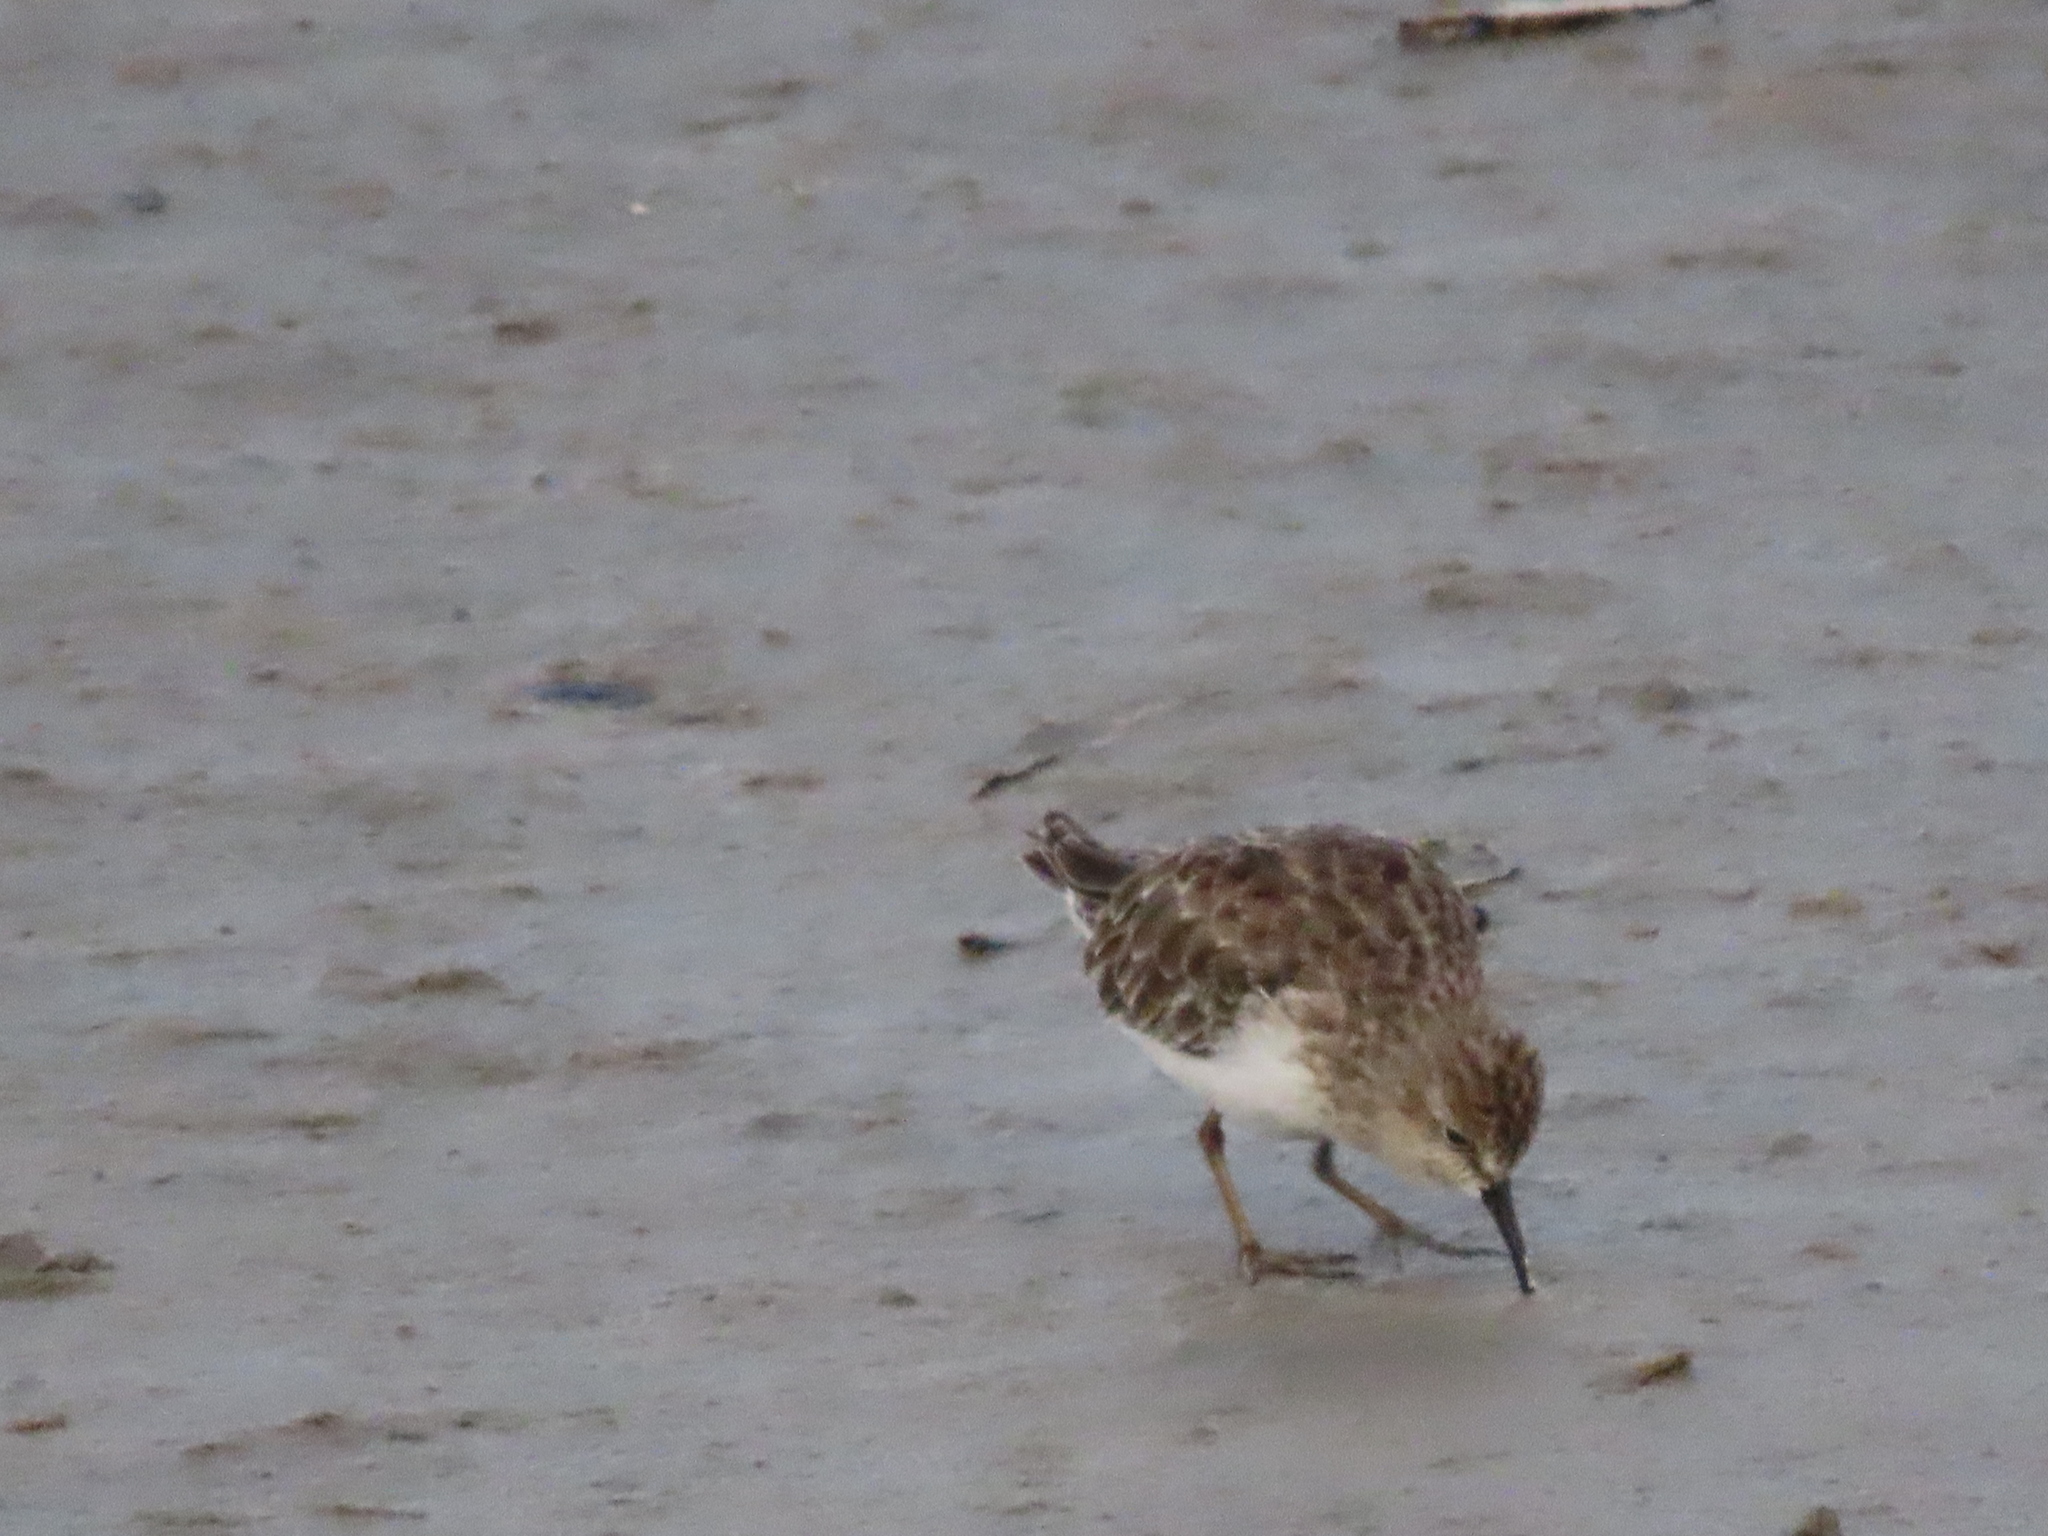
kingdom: Animalia
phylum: Chordata
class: Aves
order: Charadriiformes
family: Scolopacidae
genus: Calidris
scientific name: Calidris minutilla
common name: Least sandpiper
